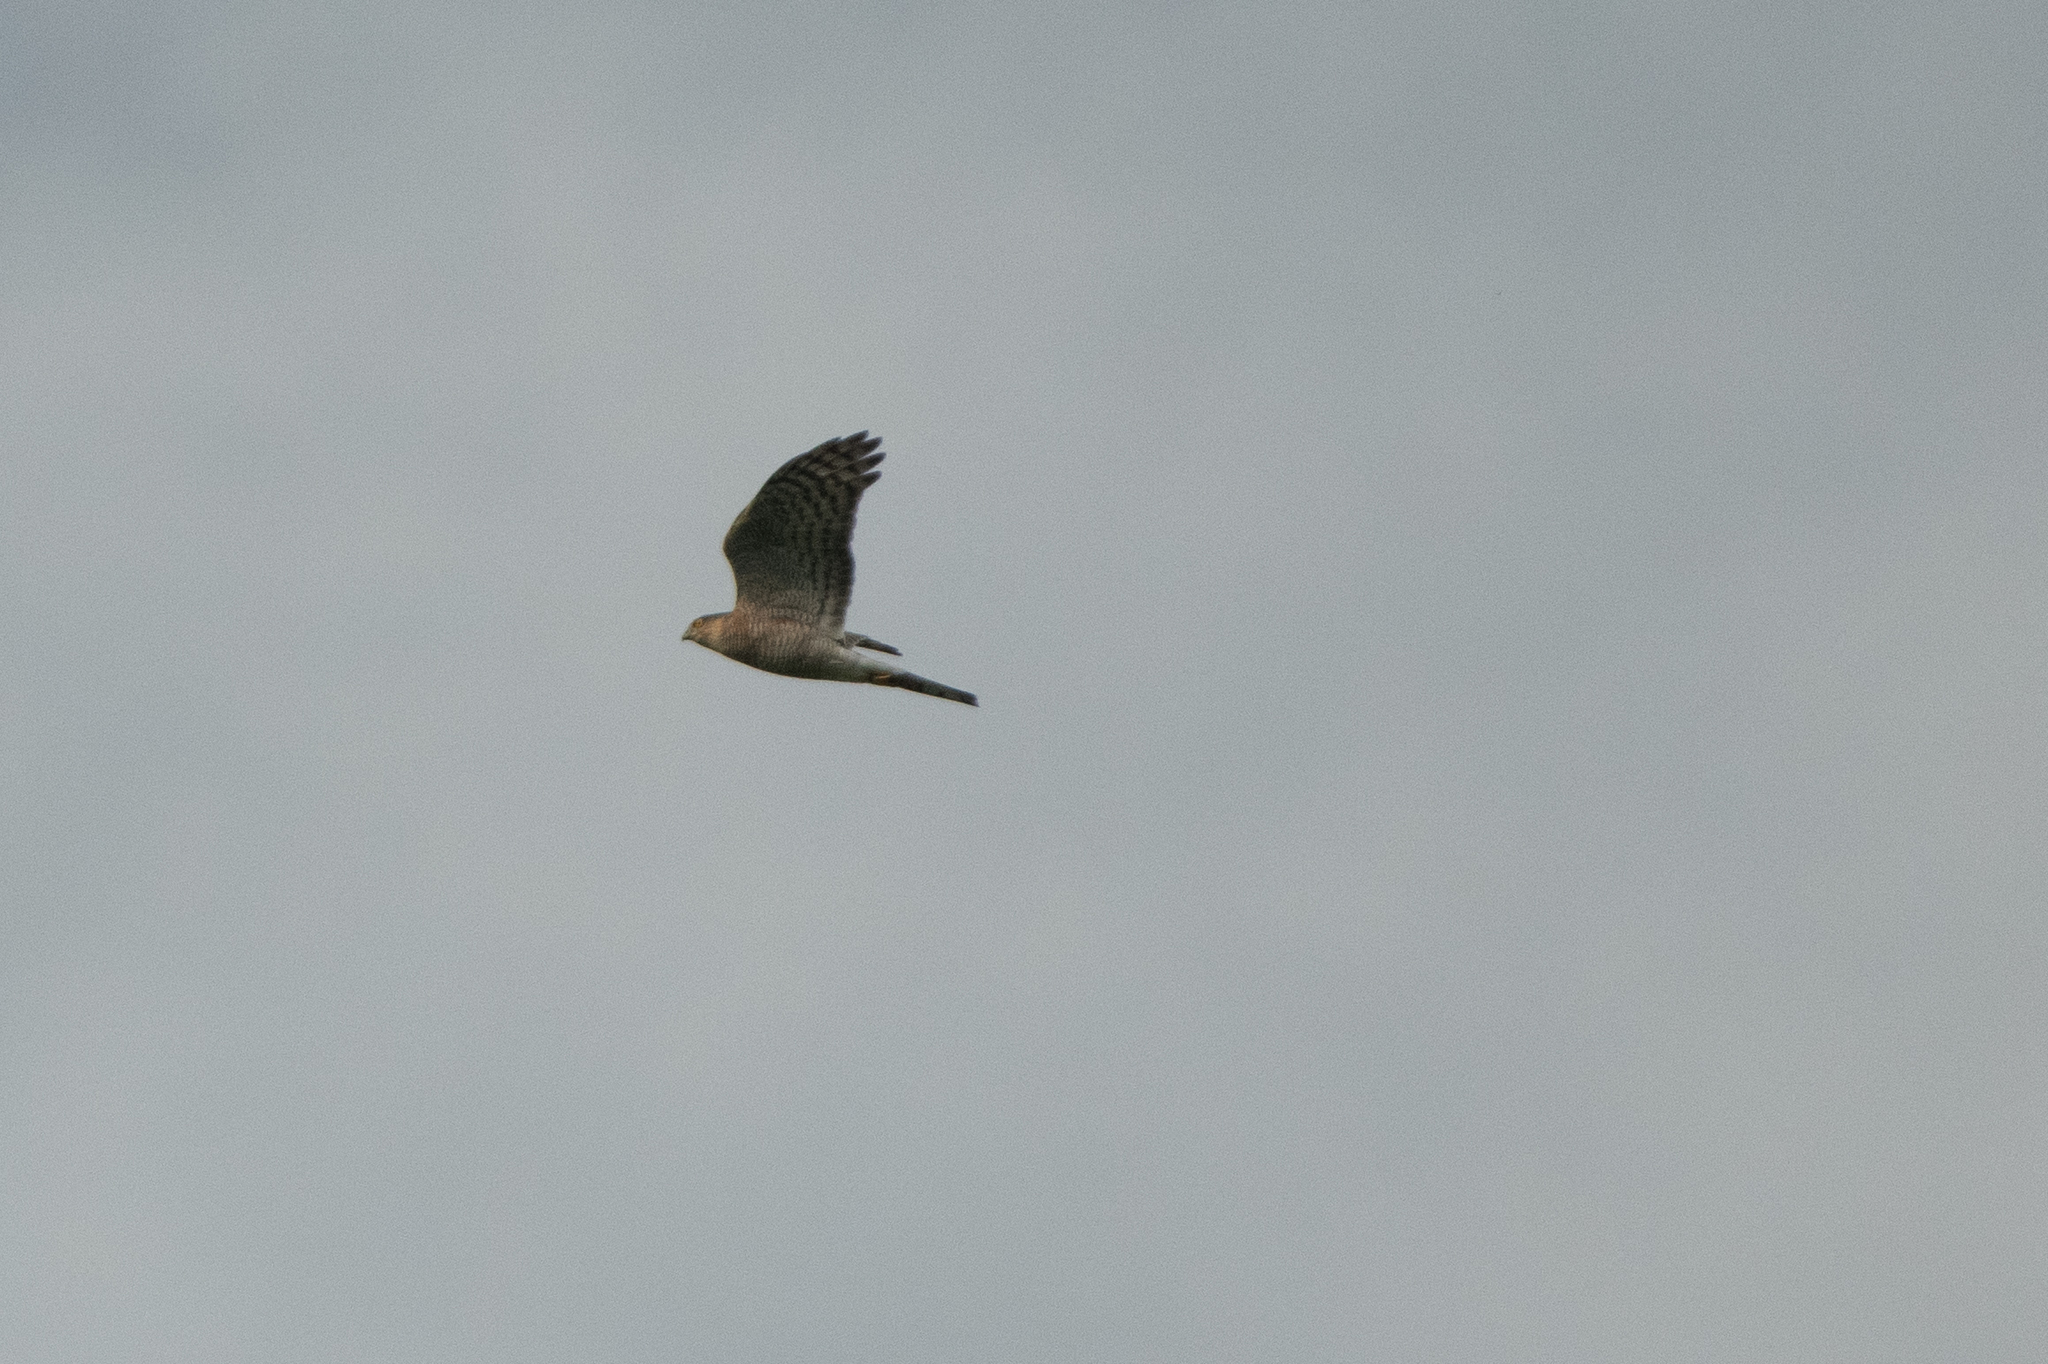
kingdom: Animalia
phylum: Chordata
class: Aves
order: Accipitriformes
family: Accipitridae
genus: Accipiter
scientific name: Accipiter nisus
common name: Eurasian sparrowhawk
